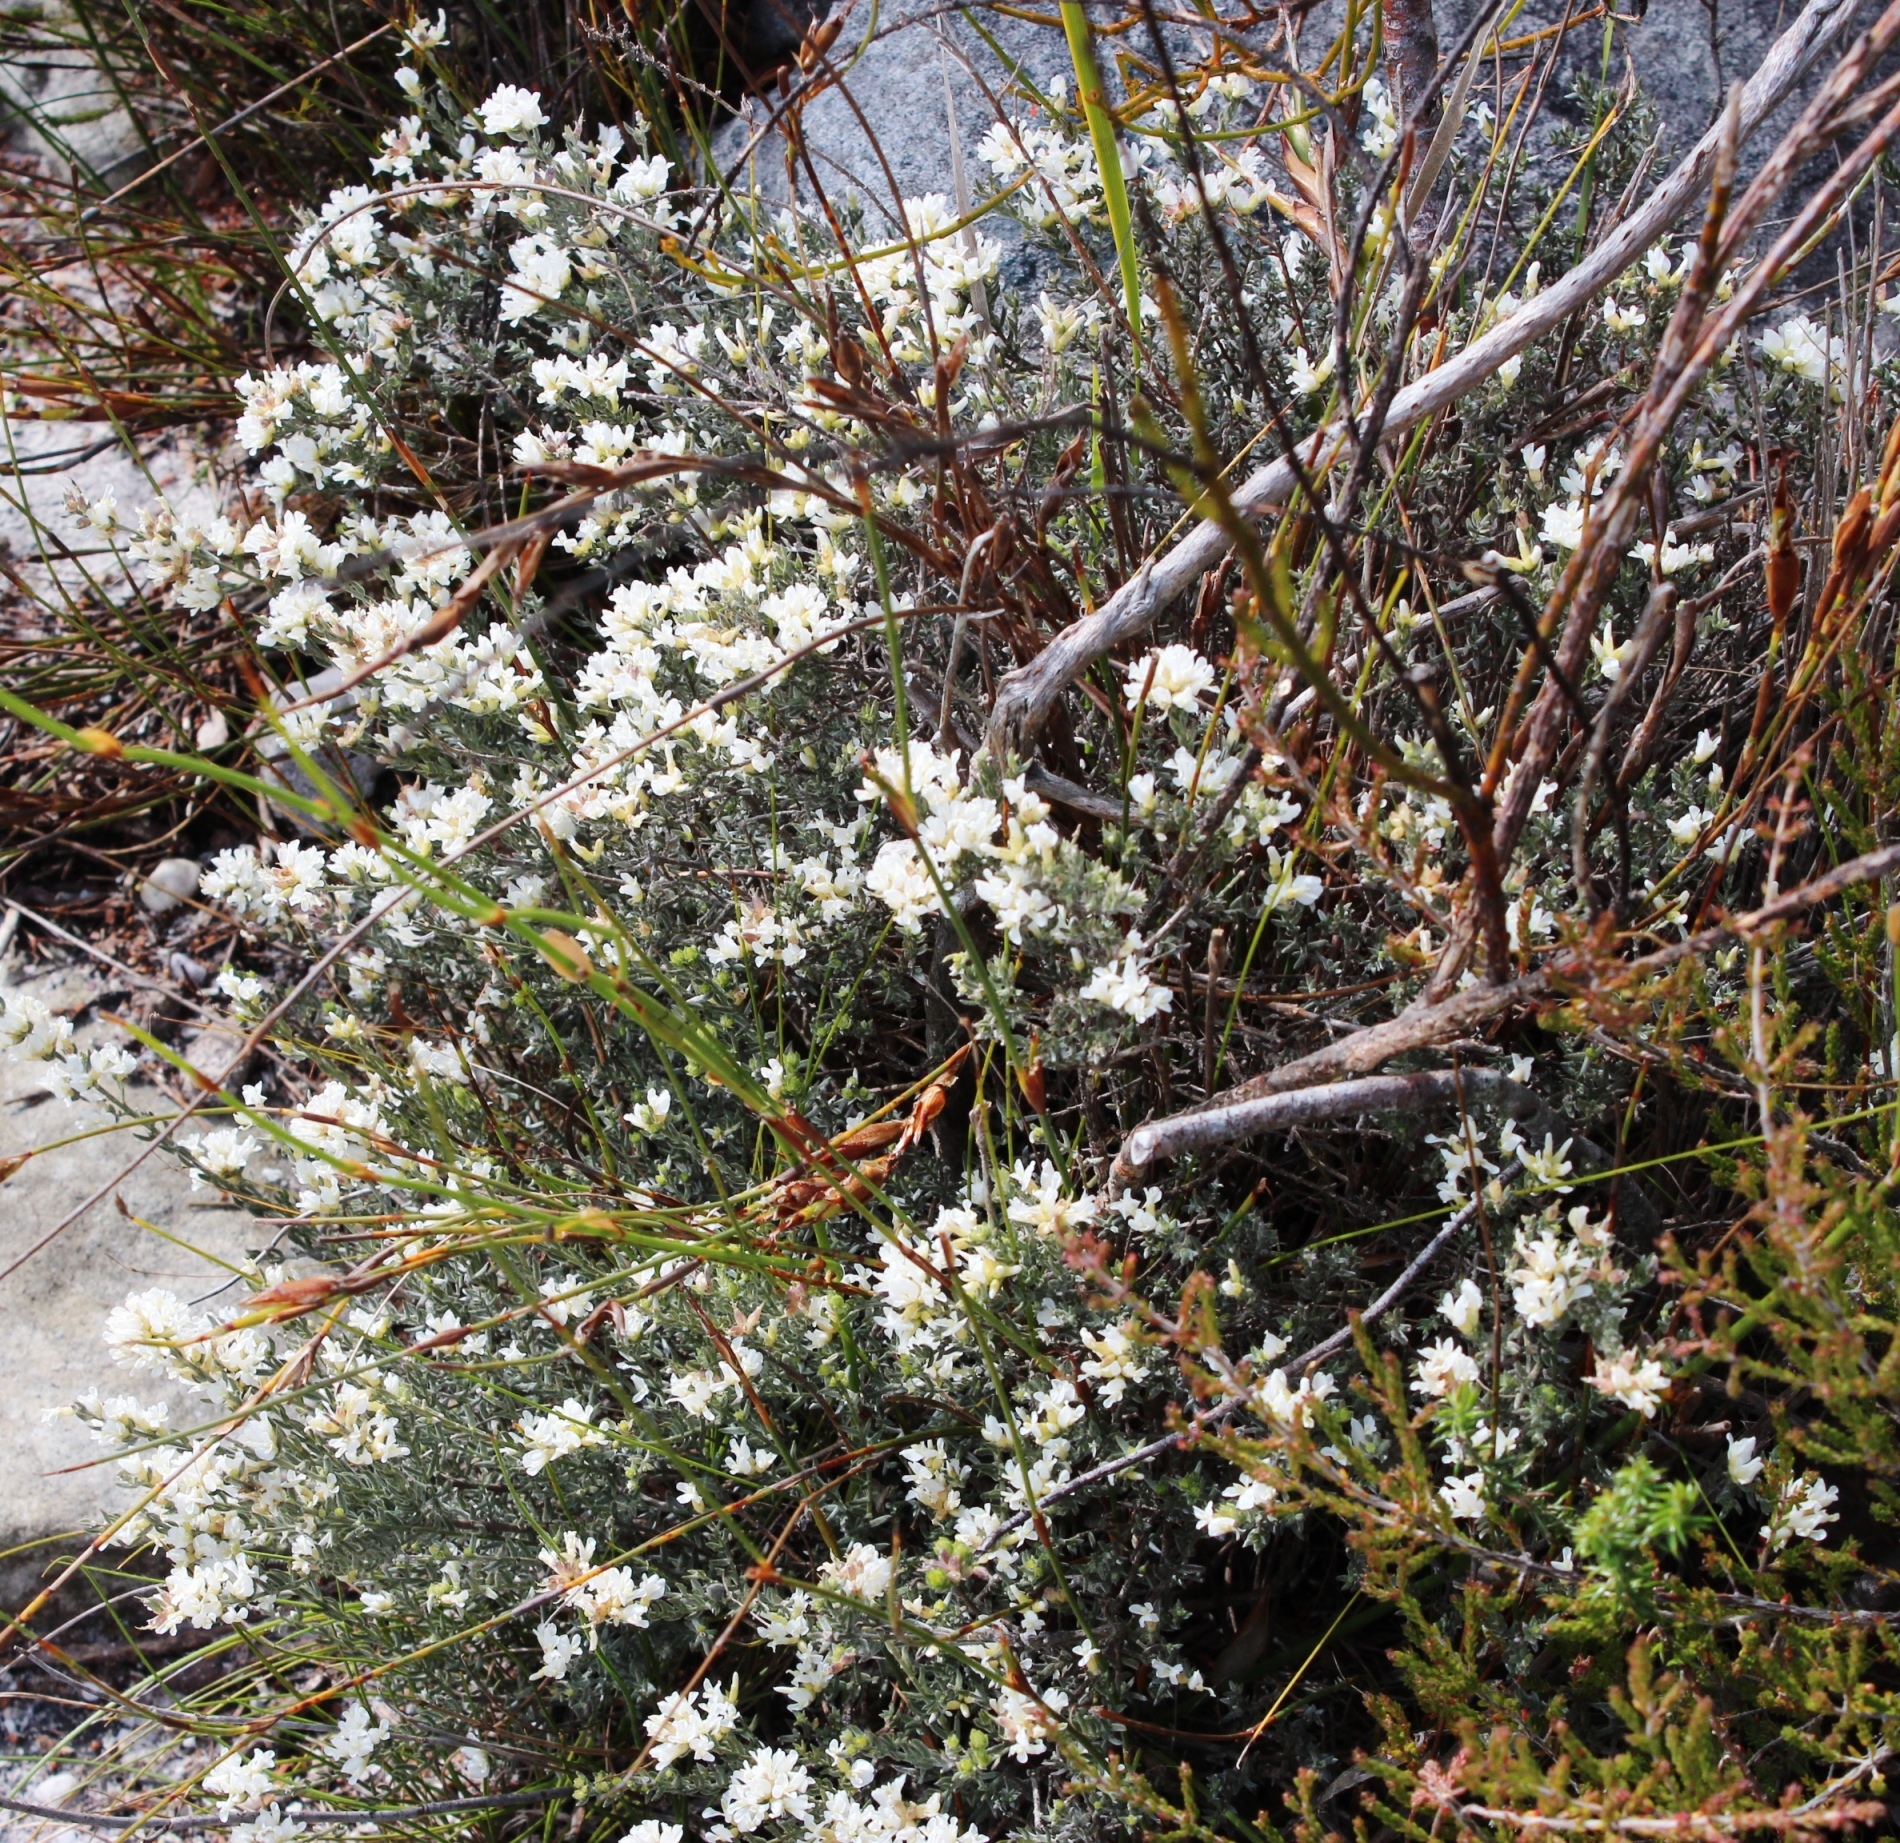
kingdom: Plantae
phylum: Tracheophyta
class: Magnoliopsida
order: Fabales
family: Fabaceae
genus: Amphithalea
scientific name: Amphithalea ericifolia
